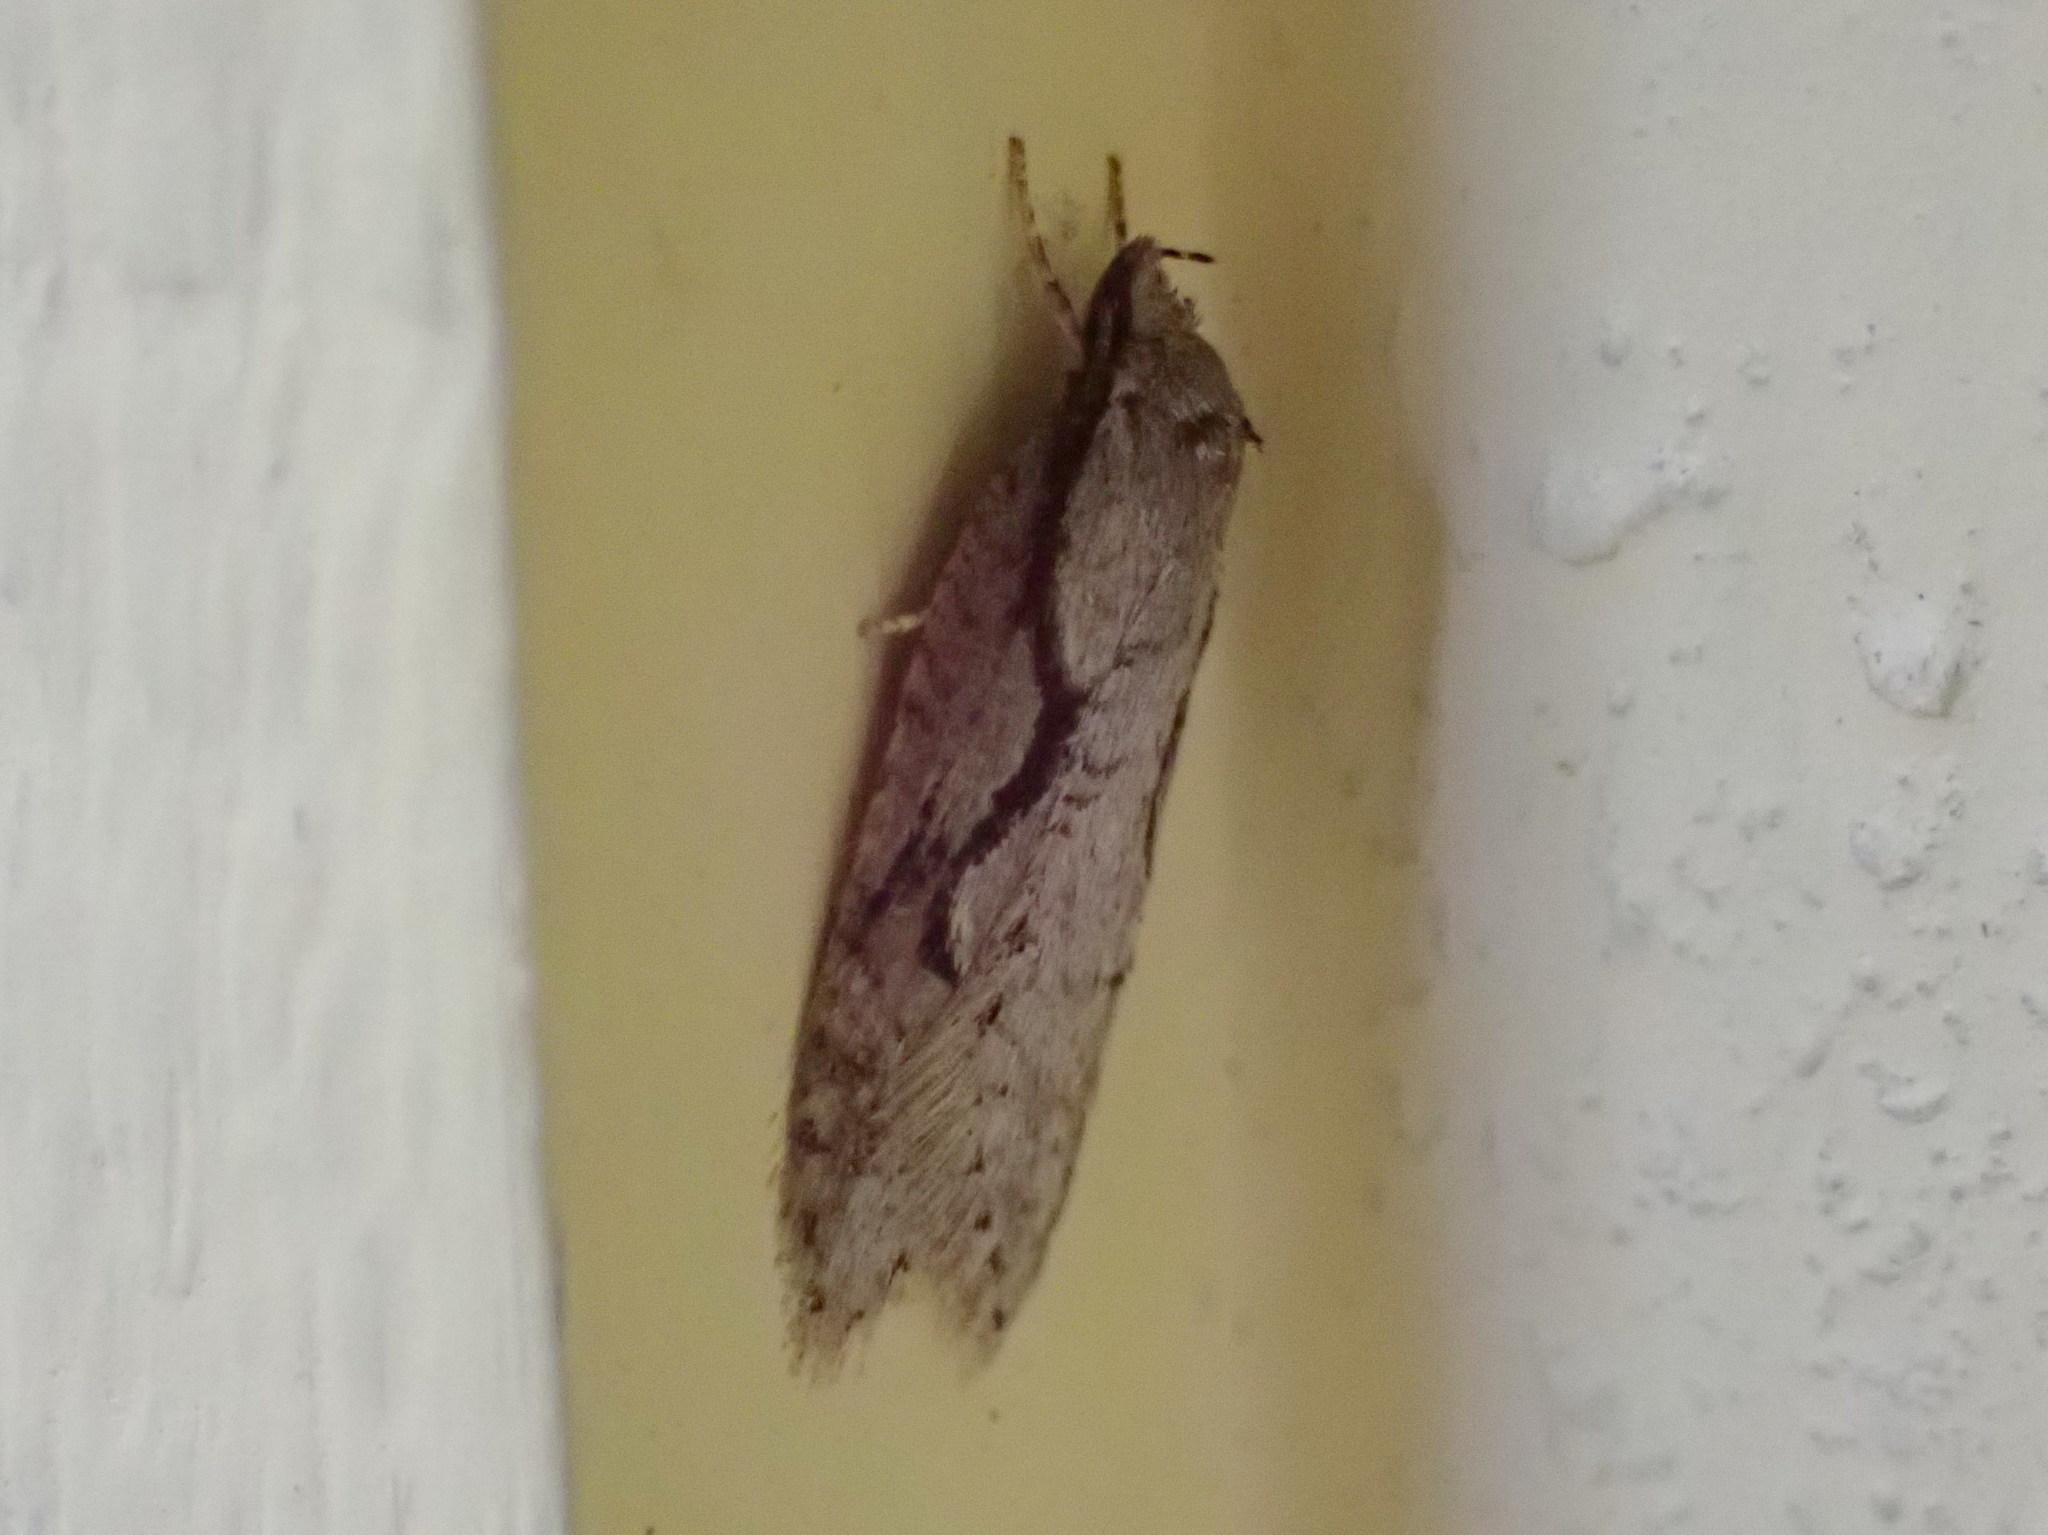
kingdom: Animalia
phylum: Arthropoda
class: Insecta
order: Lepidoptera
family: Depressariidae
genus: Semioscopis
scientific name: Semioscopis packardella
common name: Packard's concealer moth
